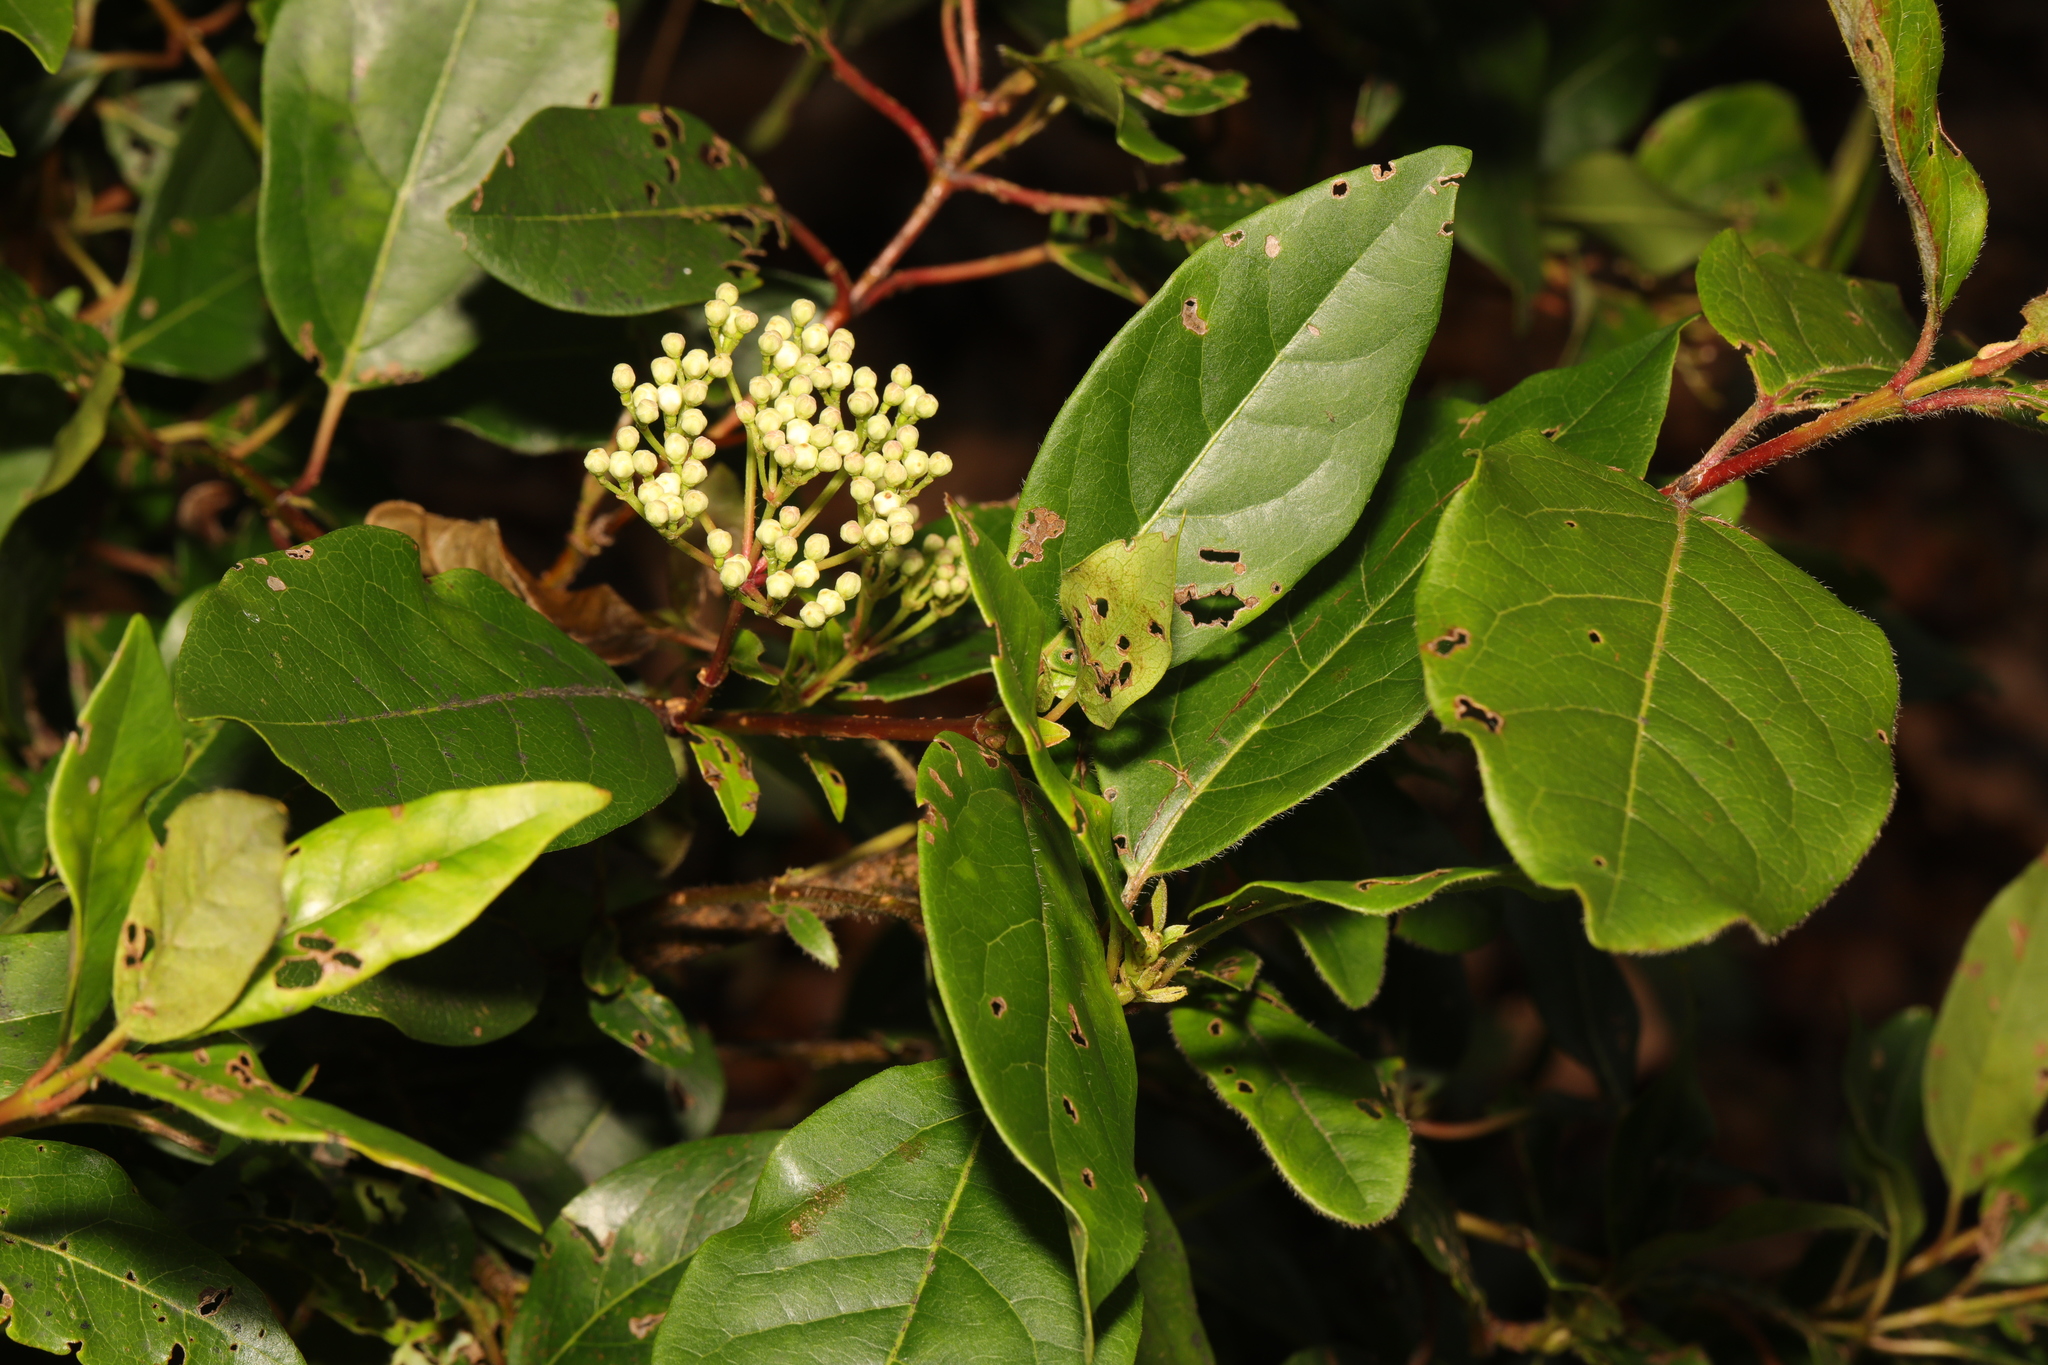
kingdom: Plantae
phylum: Tracheophyta
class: Magnoliopsida
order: Dipsacales
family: Viburnaceae
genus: Viburnum
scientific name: Viburnum tinus
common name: Laurustinus
